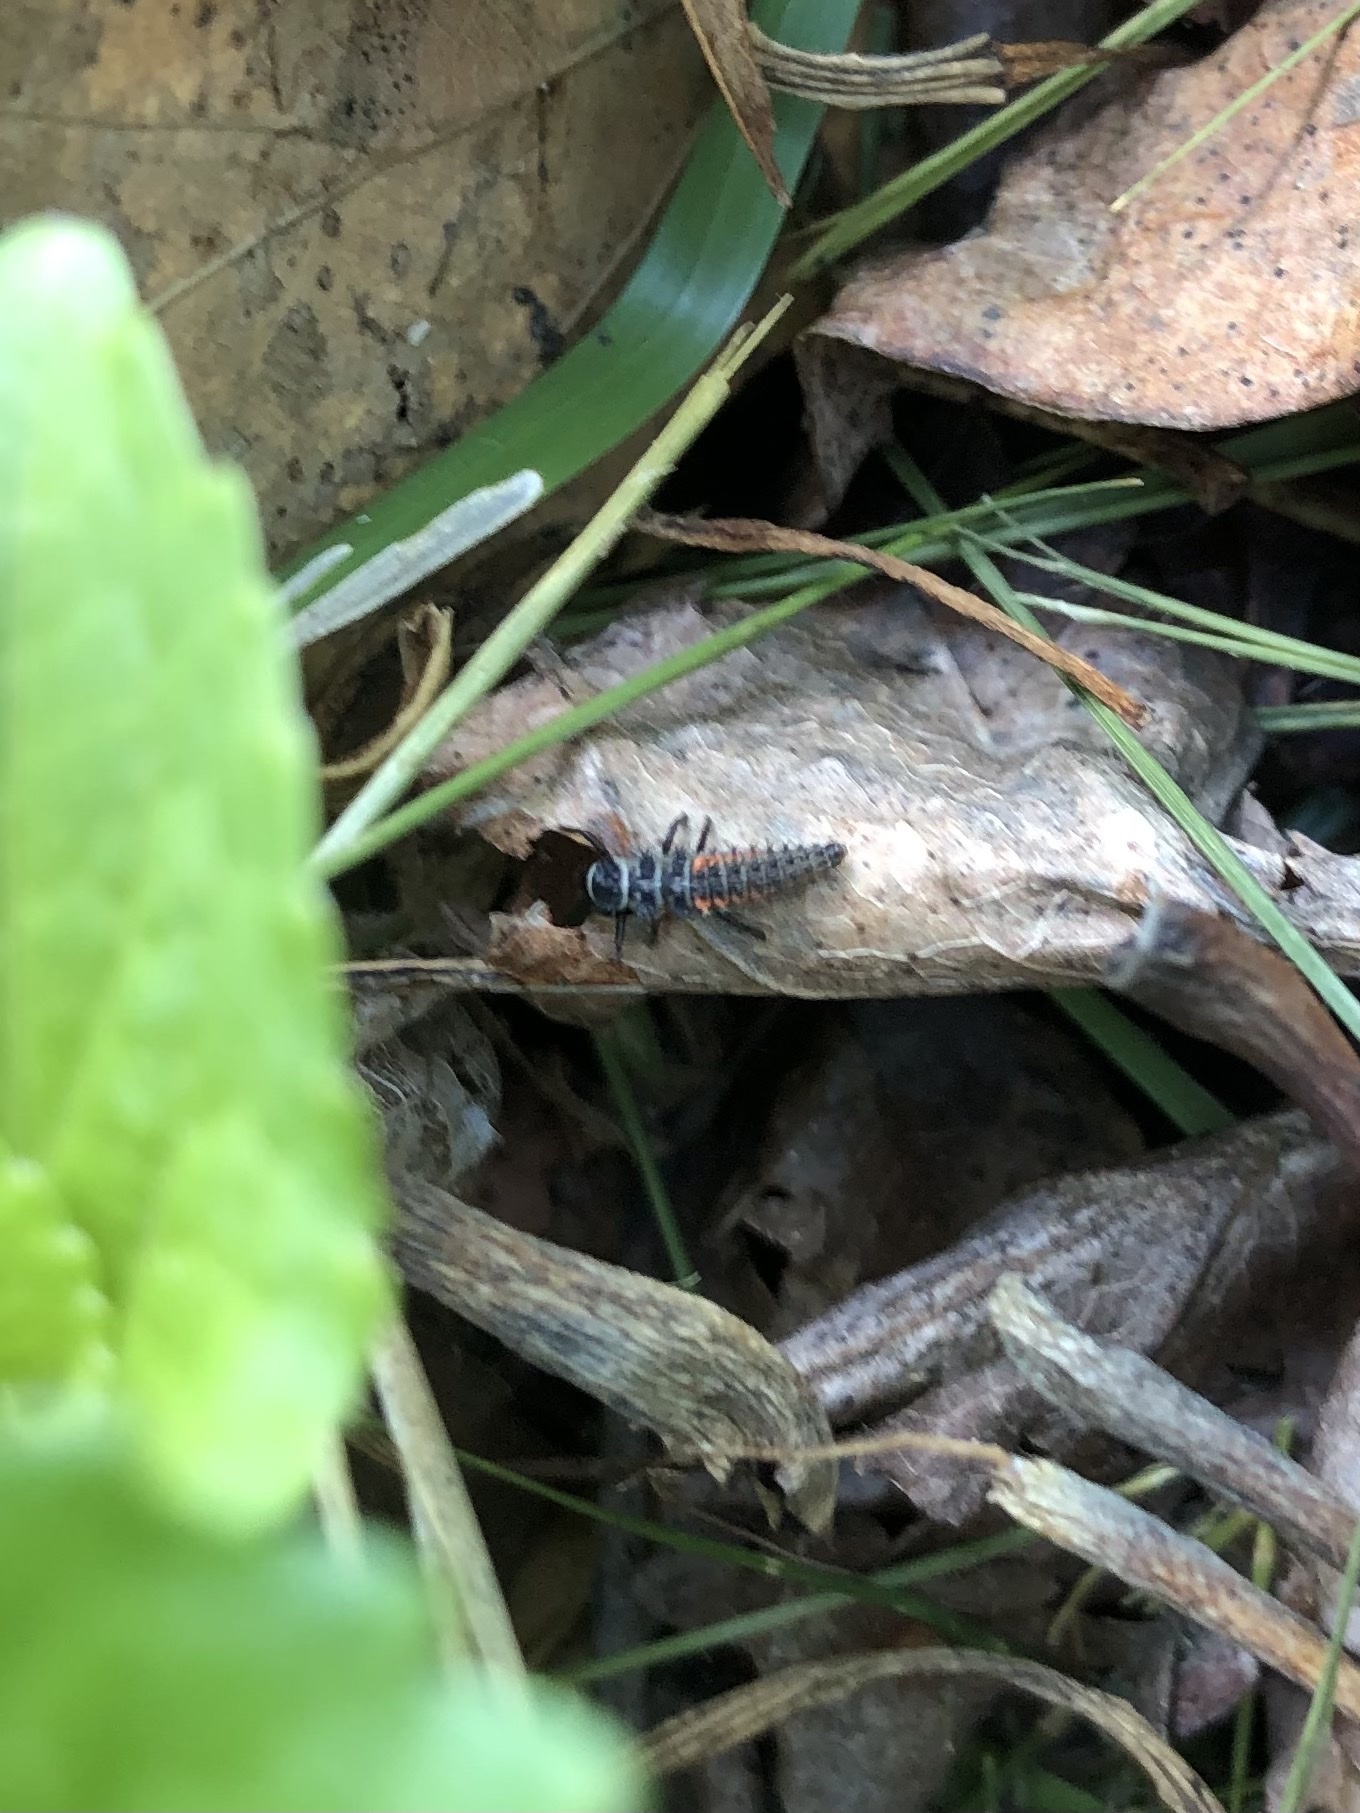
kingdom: Animalia
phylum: Arthropoda
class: Insecta
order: Coleoptera
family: Coccinellidae
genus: Harmonia
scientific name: Harmonia axyridis
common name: Harlequin ladybird
